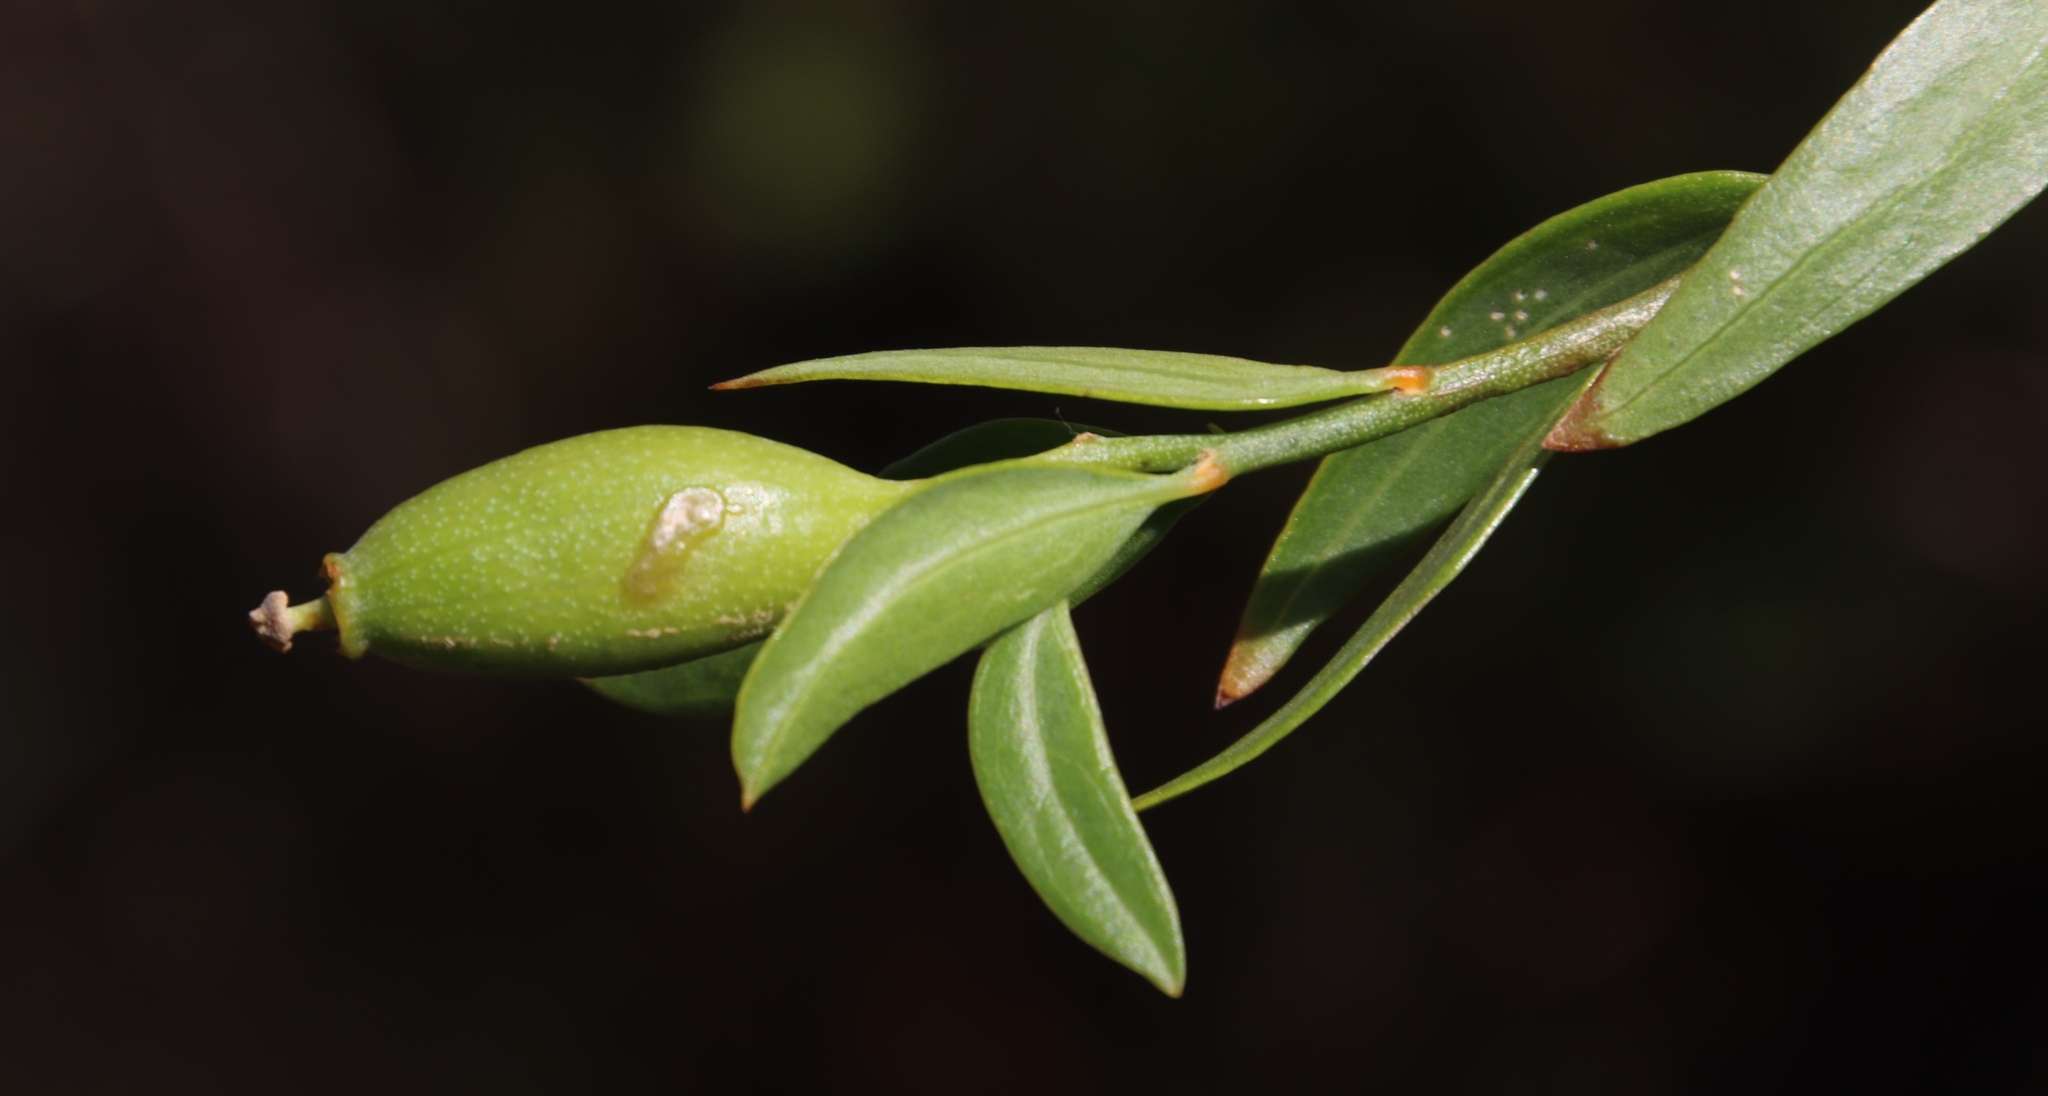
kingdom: Plantae
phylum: Tracheophyta
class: Magnoliopsida
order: Solanales
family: Montiniaceae
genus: Montinia
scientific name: Montinia caryophyllacea
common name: Wild clove-bush
